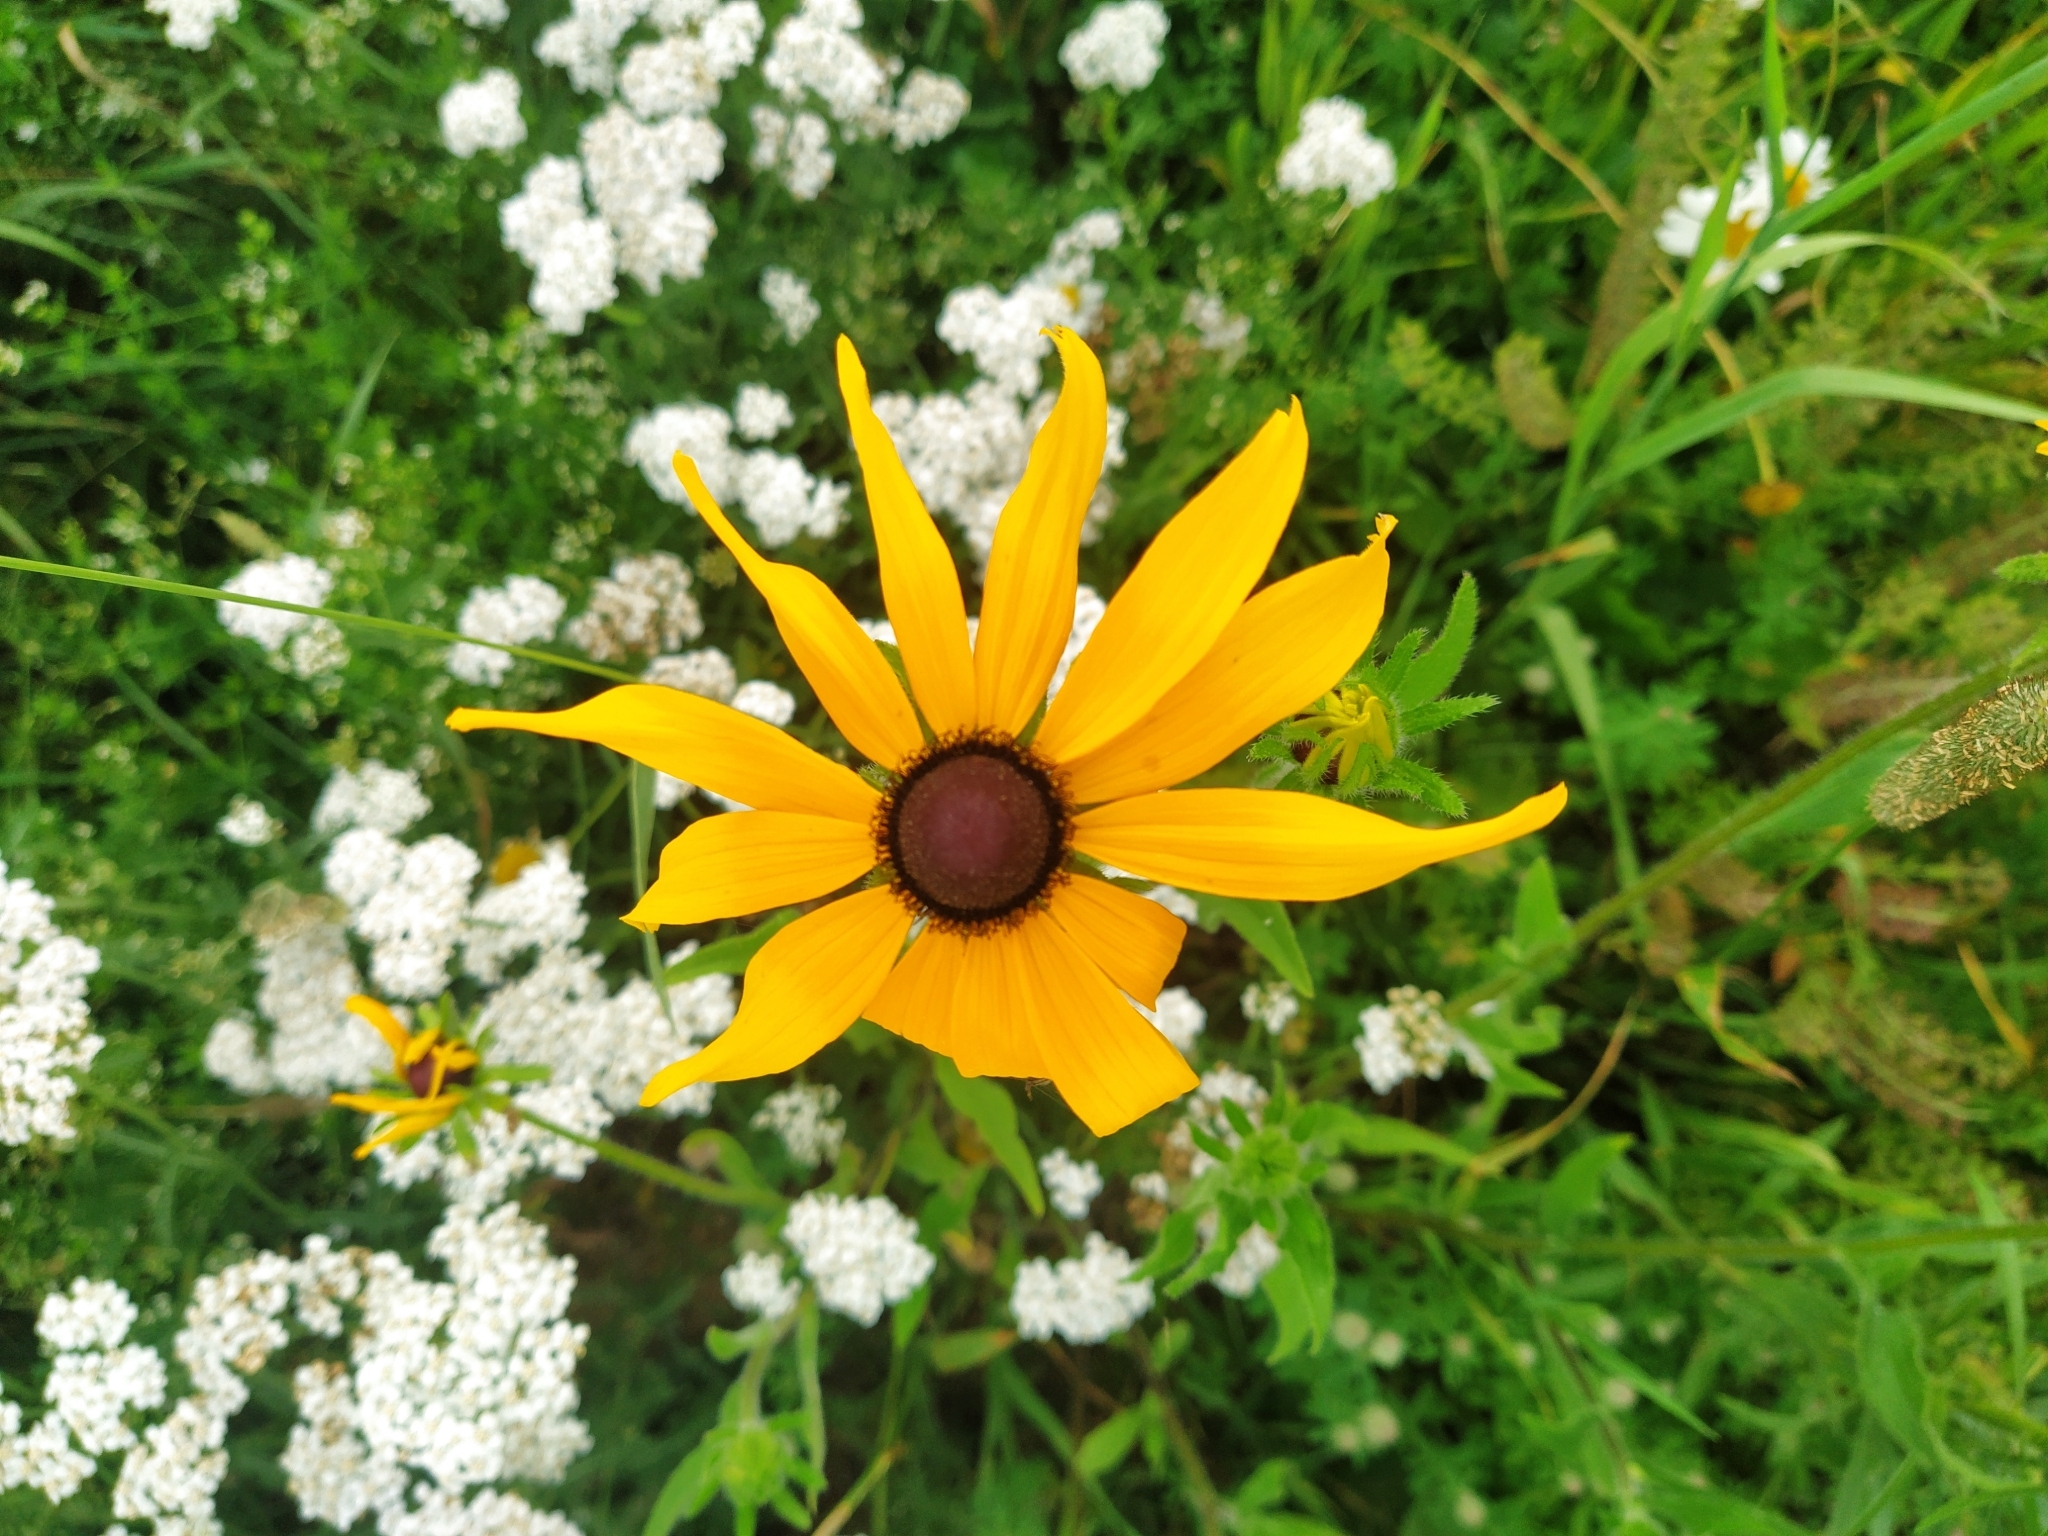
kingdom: Plantae
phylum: Tracheophyta
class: Magnoliopsida
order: Asterales
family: Asteraceae
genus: Rudbeckia
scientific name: Rudbeckia hirta
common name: Black-eyed-susan
